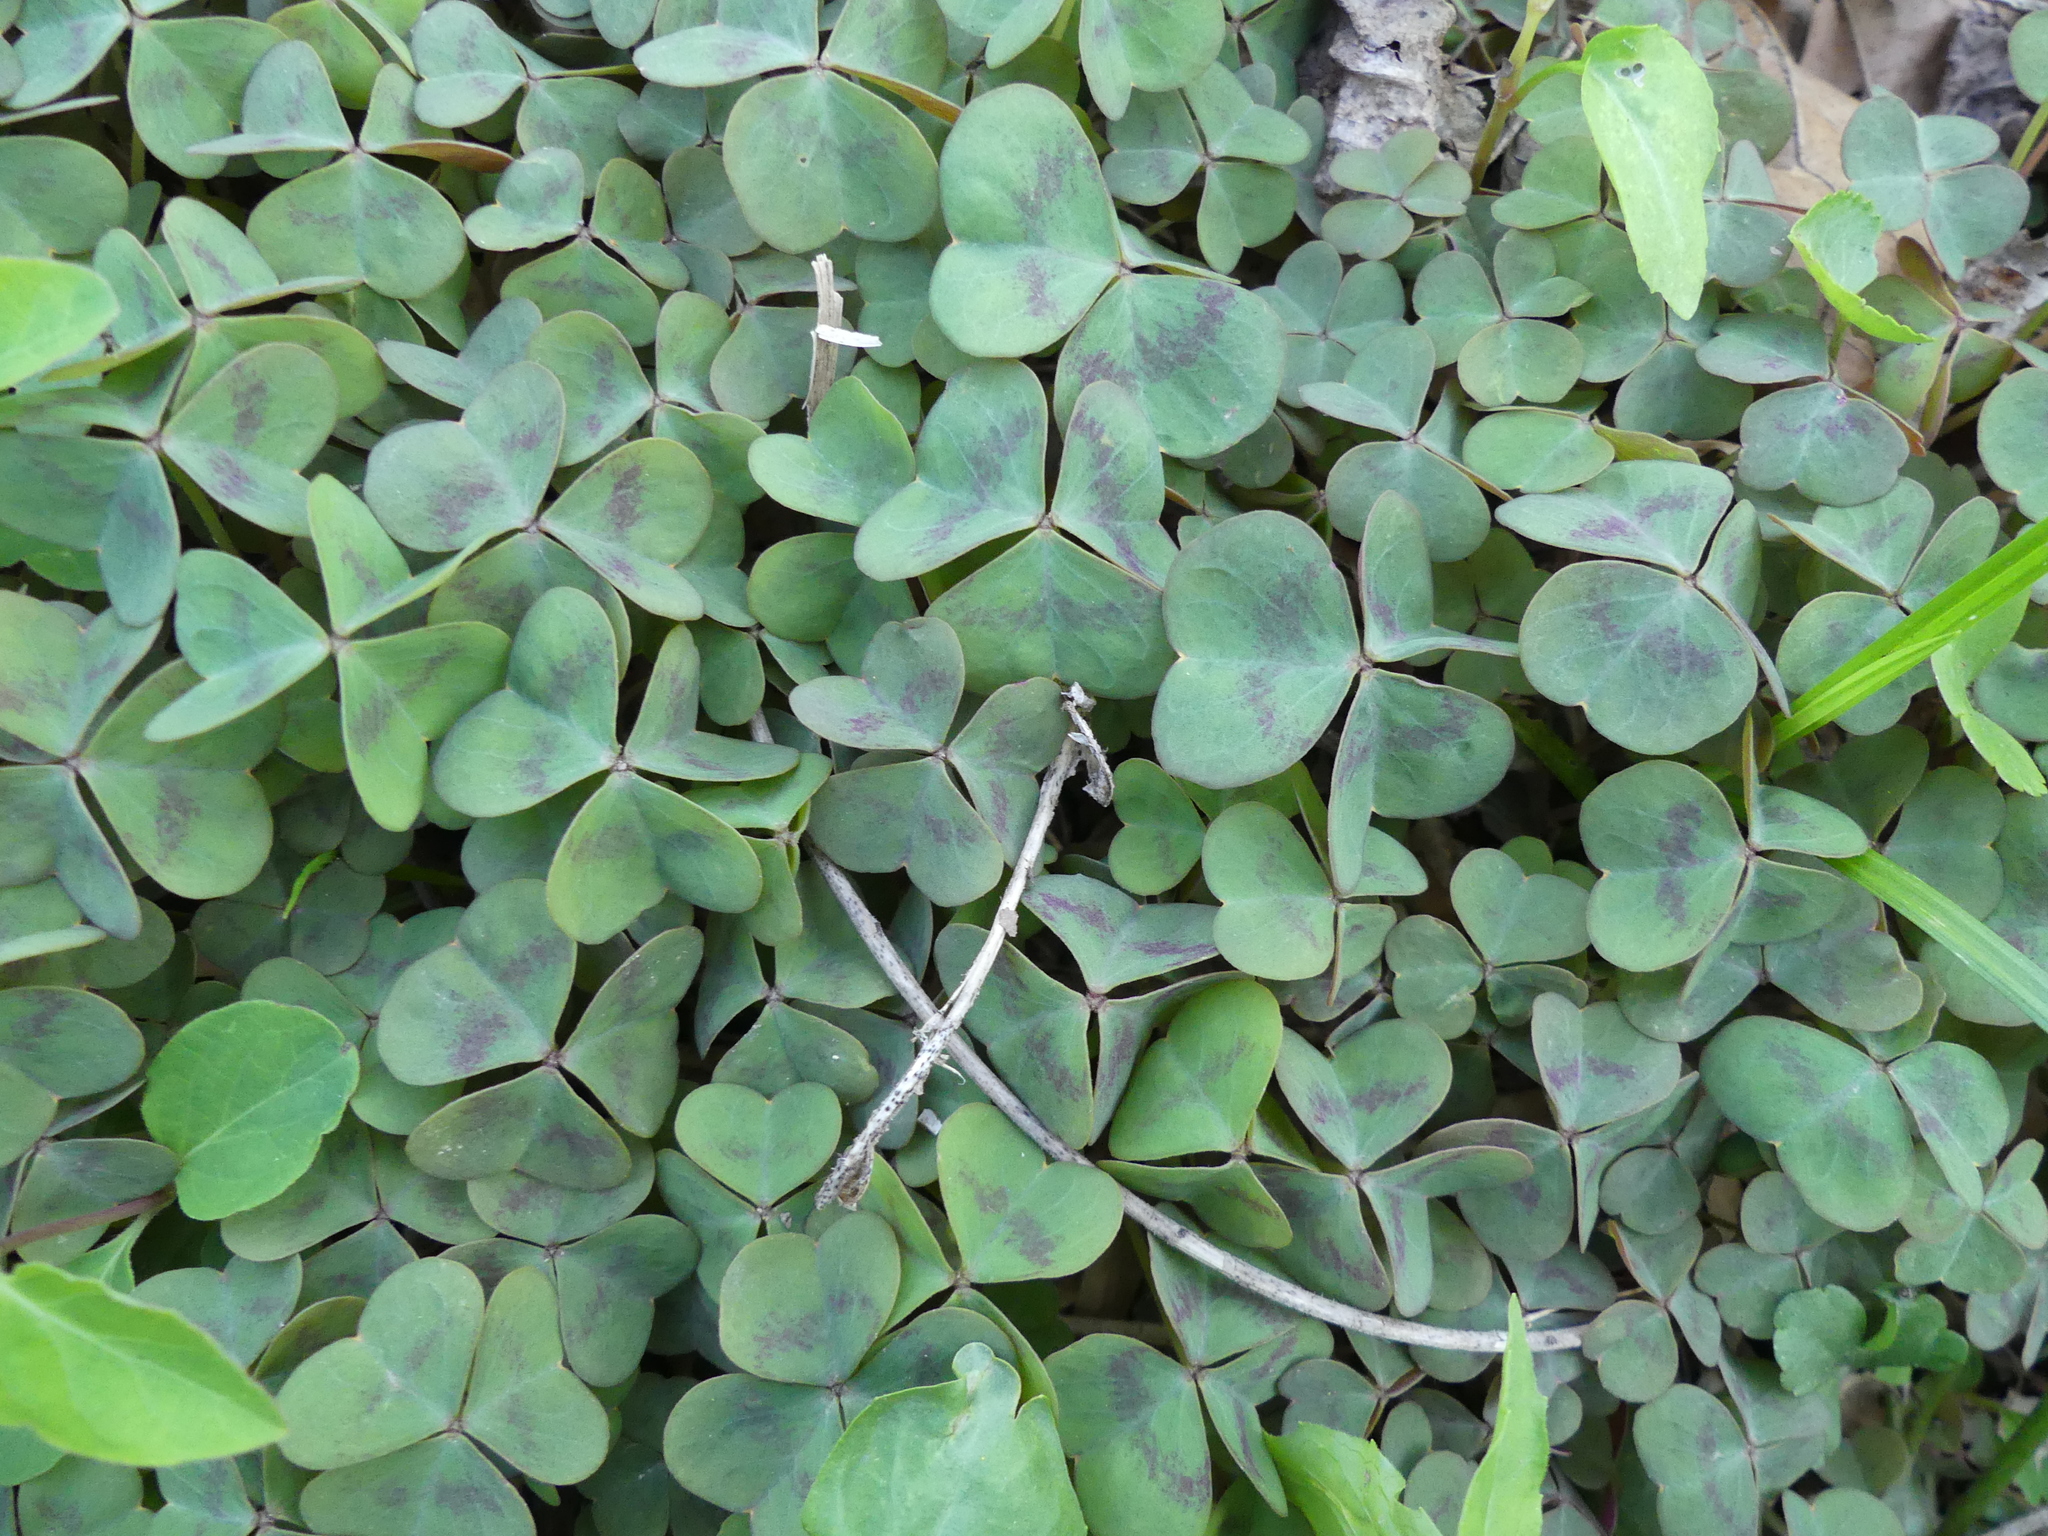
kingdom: Plantae
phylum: Tracheophyta
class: Magnoliopsida
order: Oxalidales
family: Oxalidaceae
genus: Oxalis
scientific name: Oxalis violacea
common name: Violet wood-sorrel
